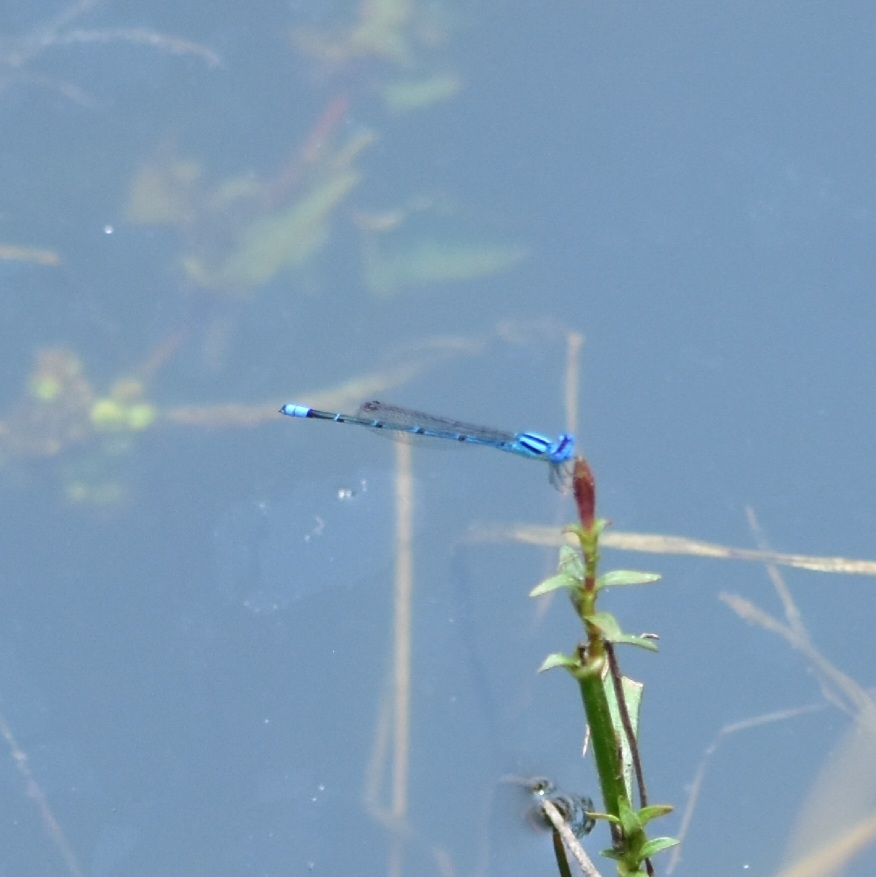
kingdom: Animalia
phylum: Arthropoda
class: Insecta
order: Odonata
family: Coenagrionidae
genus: Pseudagrion
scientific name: Pseudagrion malabaricum
